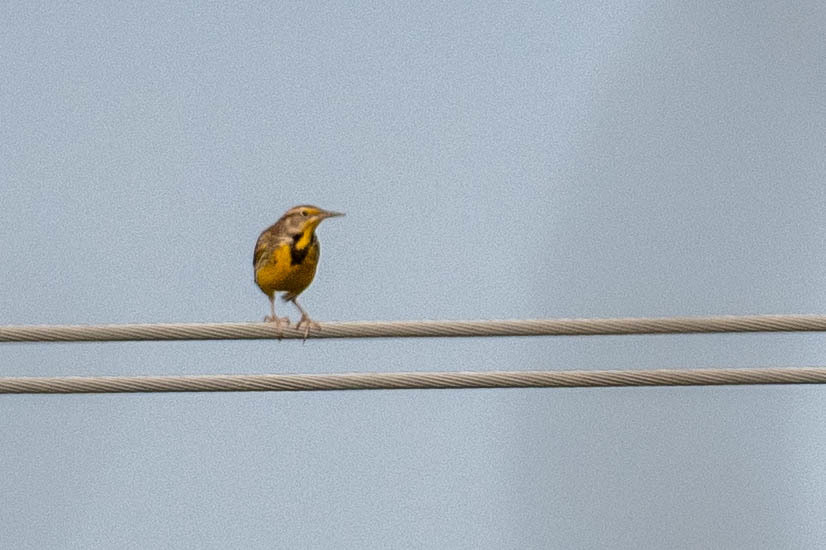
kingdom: Animalia
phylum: Chordata
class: Aves
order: Passeriformes
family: Icteridae
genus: Sturnella
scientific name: Sturnella neglecta
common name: Western meadowlark
